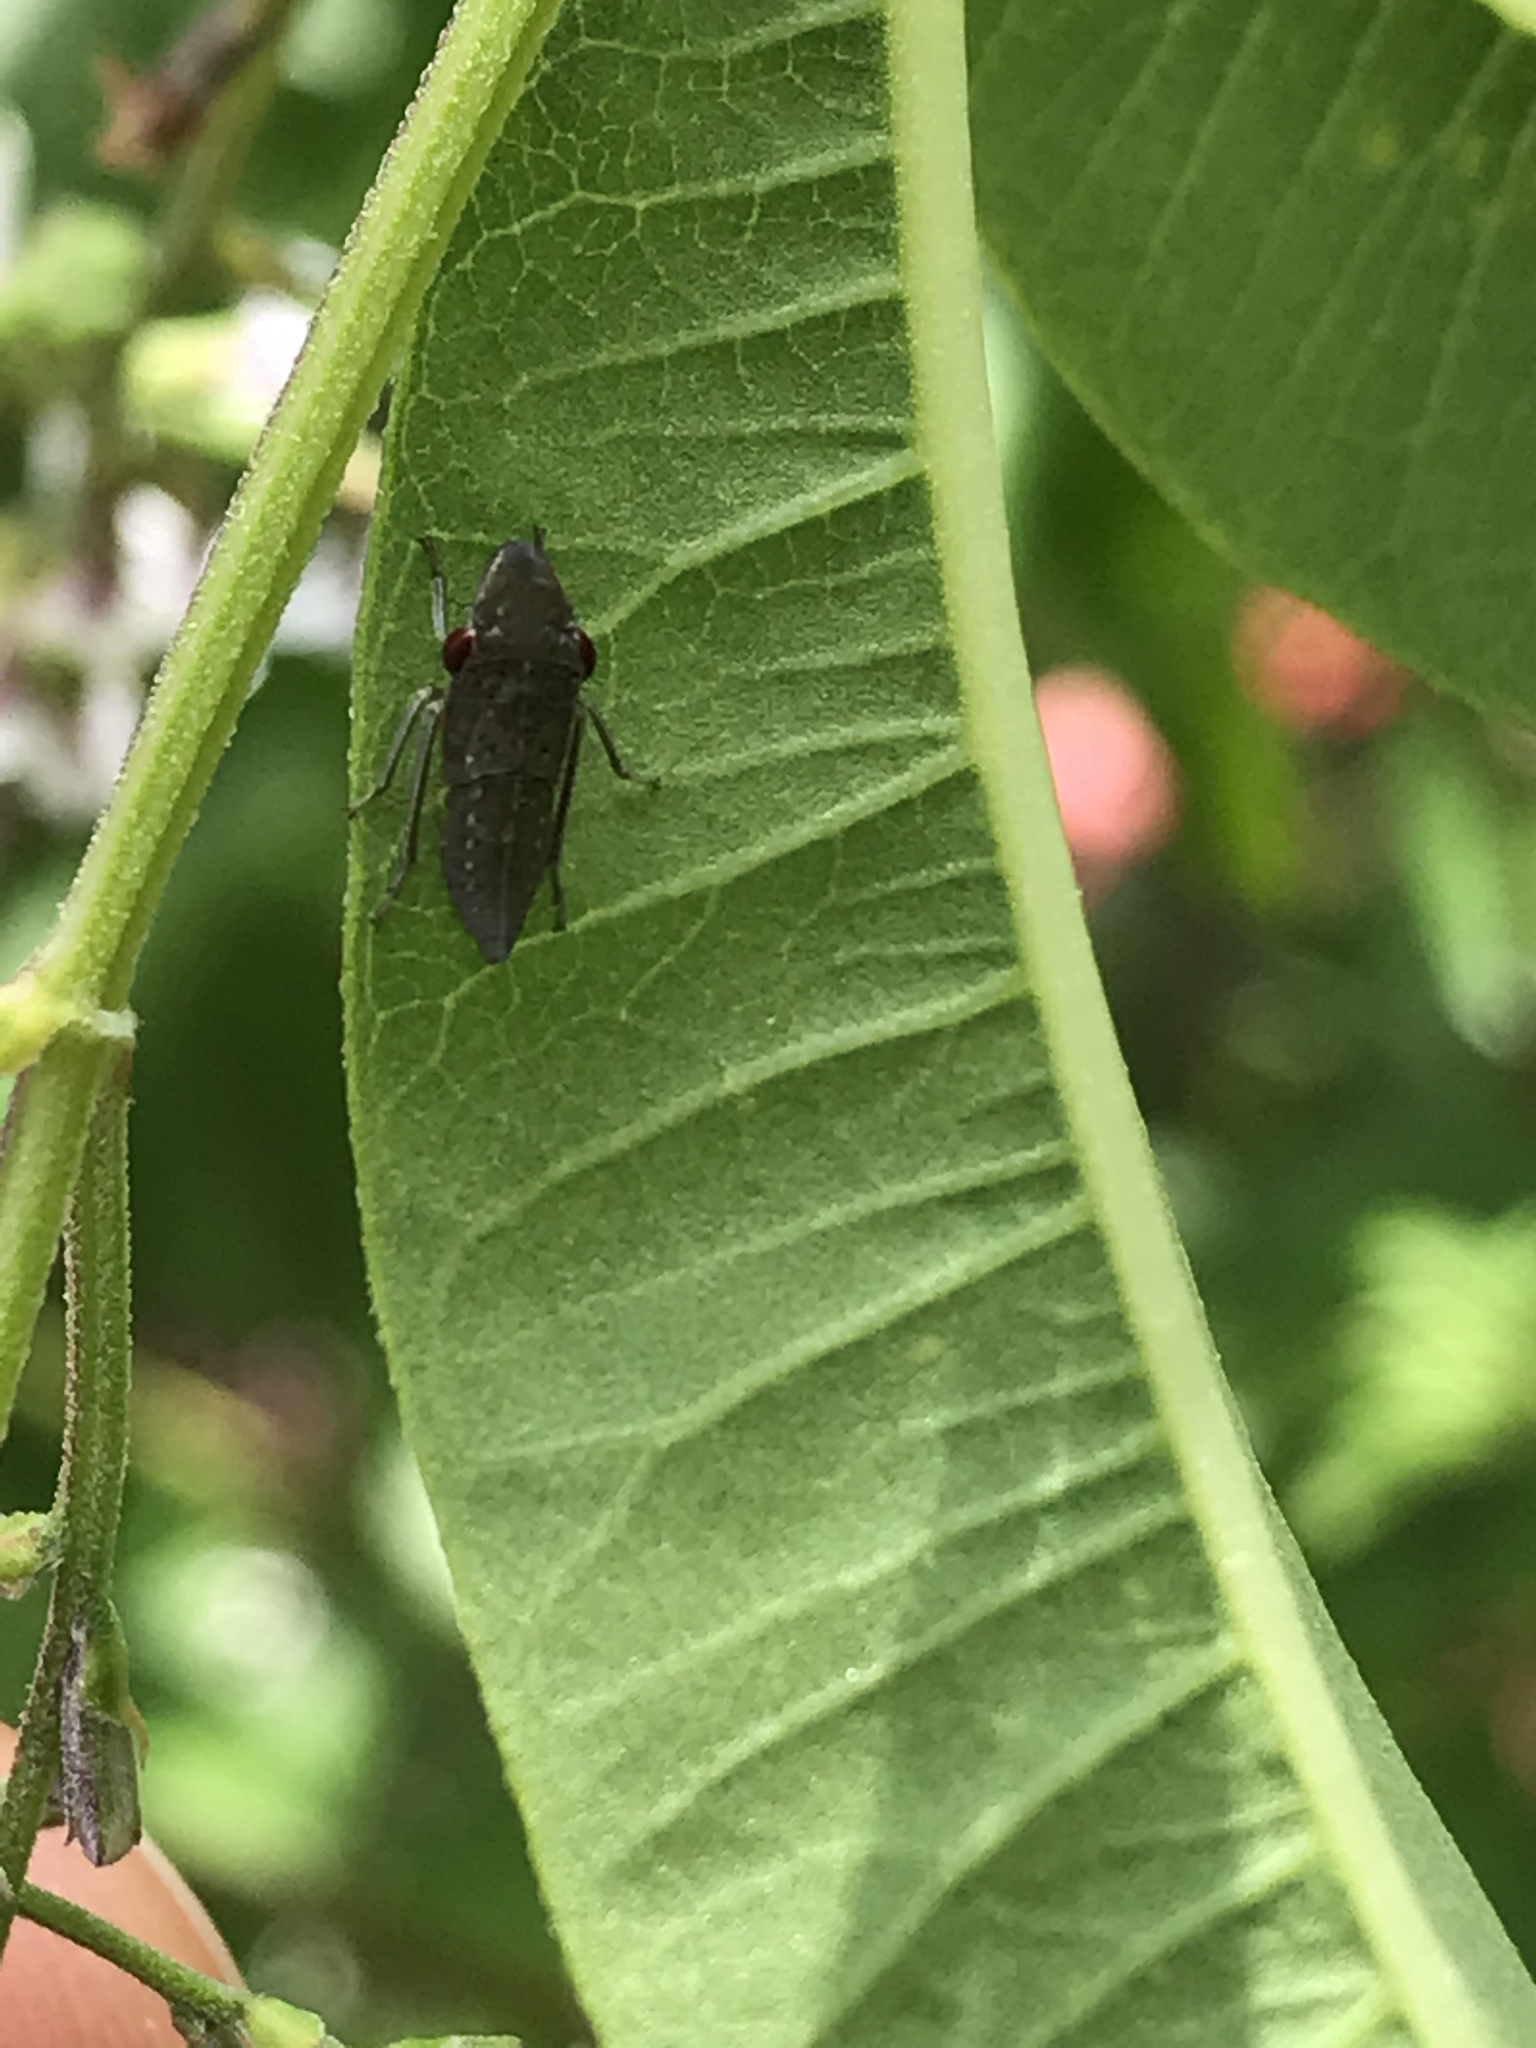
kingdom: Animalia
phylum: Arthropoda
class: Insecta
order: Hemiptera
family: Cicadellidae
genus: Homalodisca
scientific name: Homalodisca
